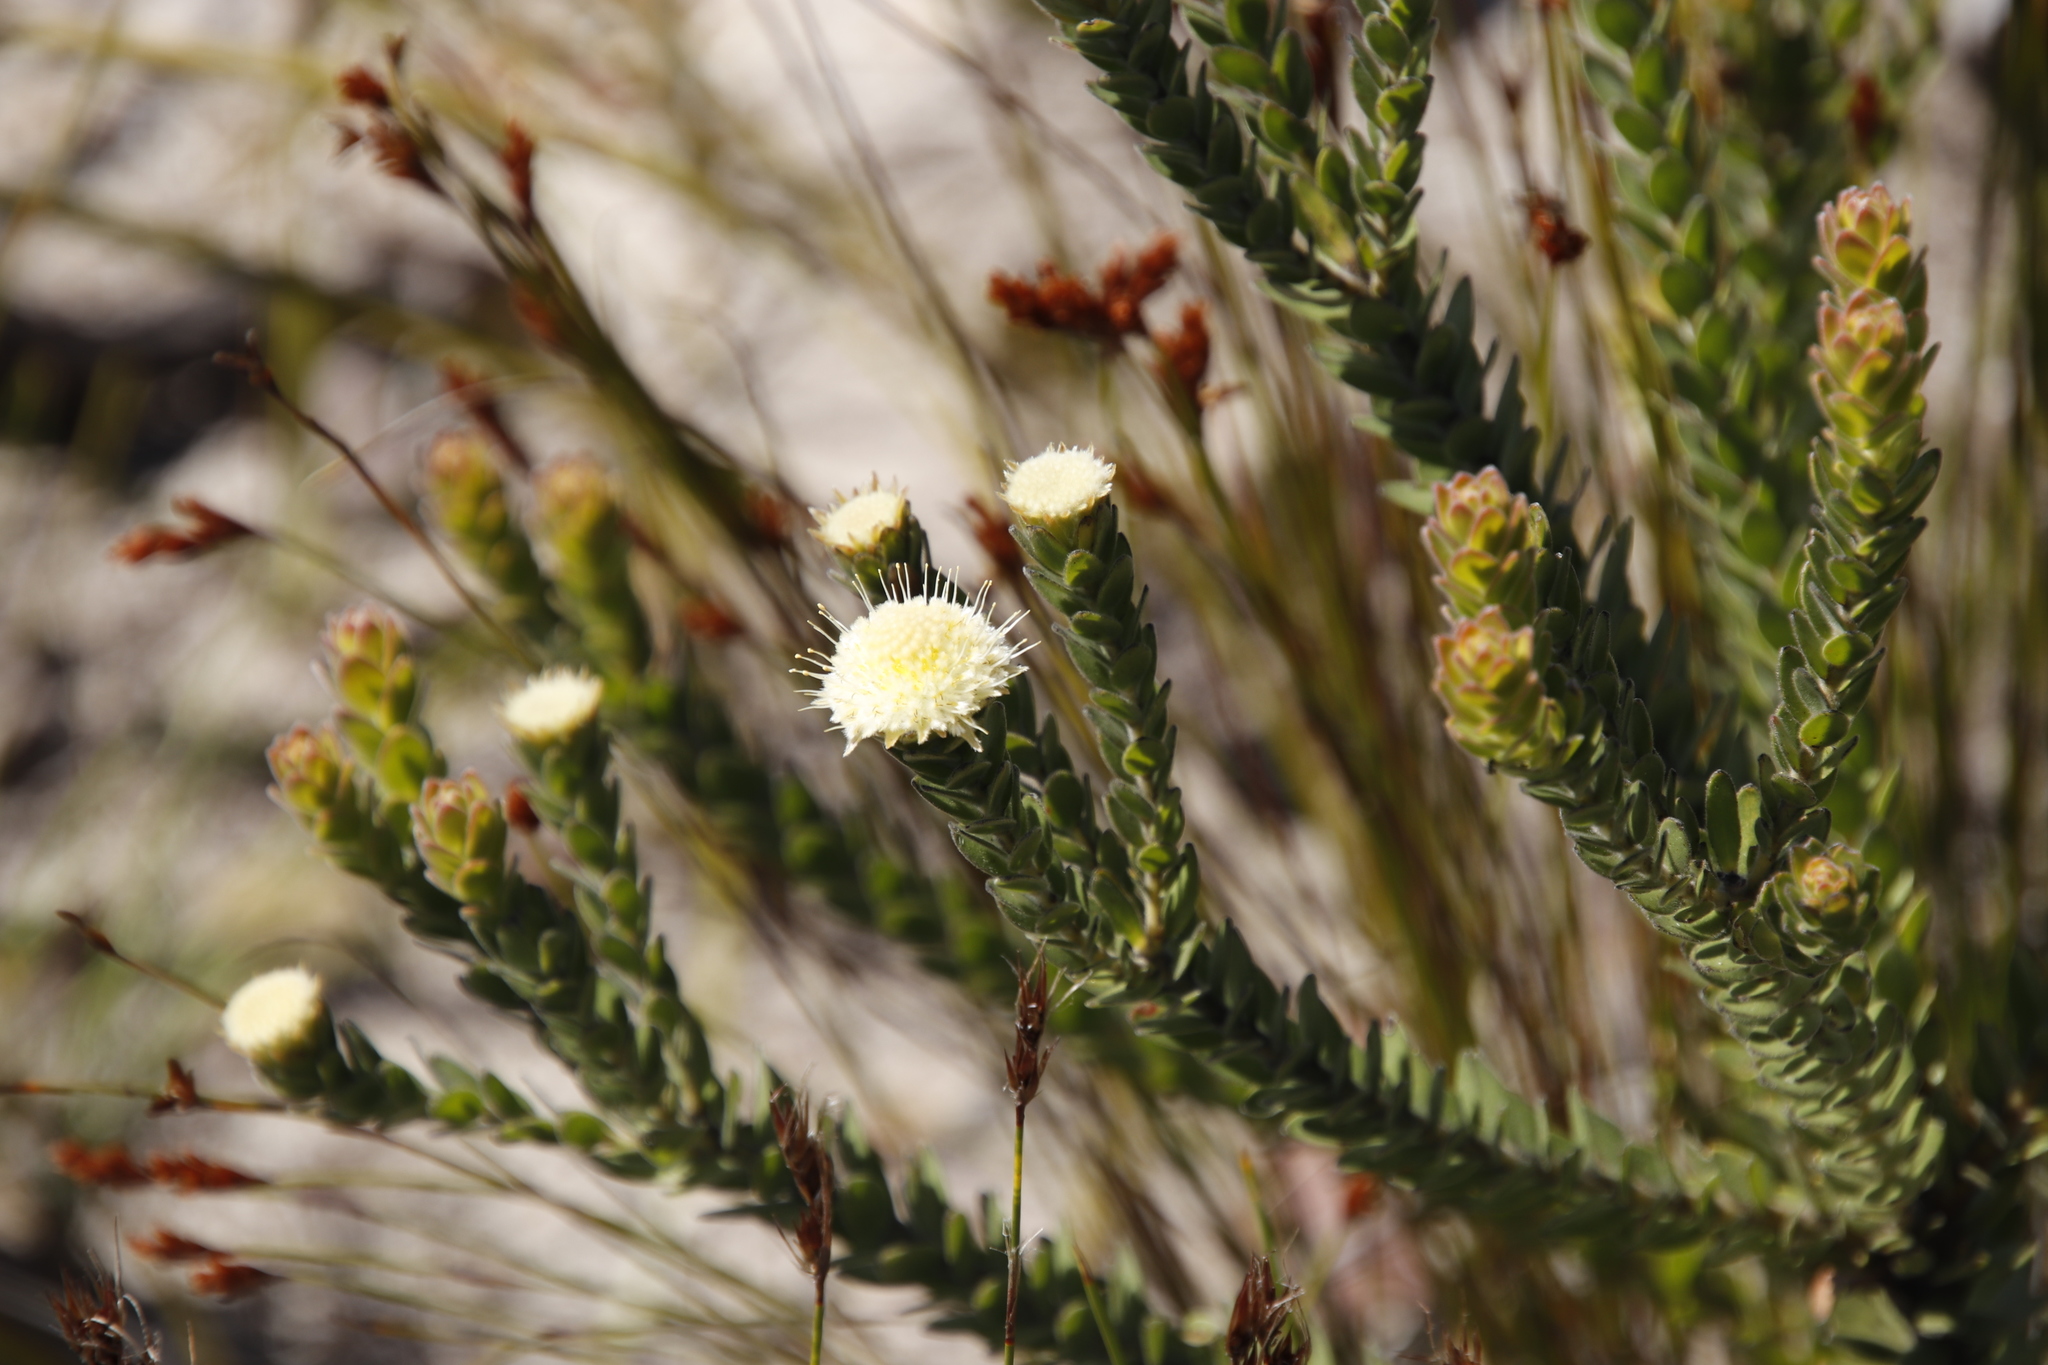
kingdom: Plantae
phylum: Tracheophyta
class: Magnoliopsida
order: Proteales
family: Proteaceae
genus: Diastella
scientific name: Diastella thymelaeoides
